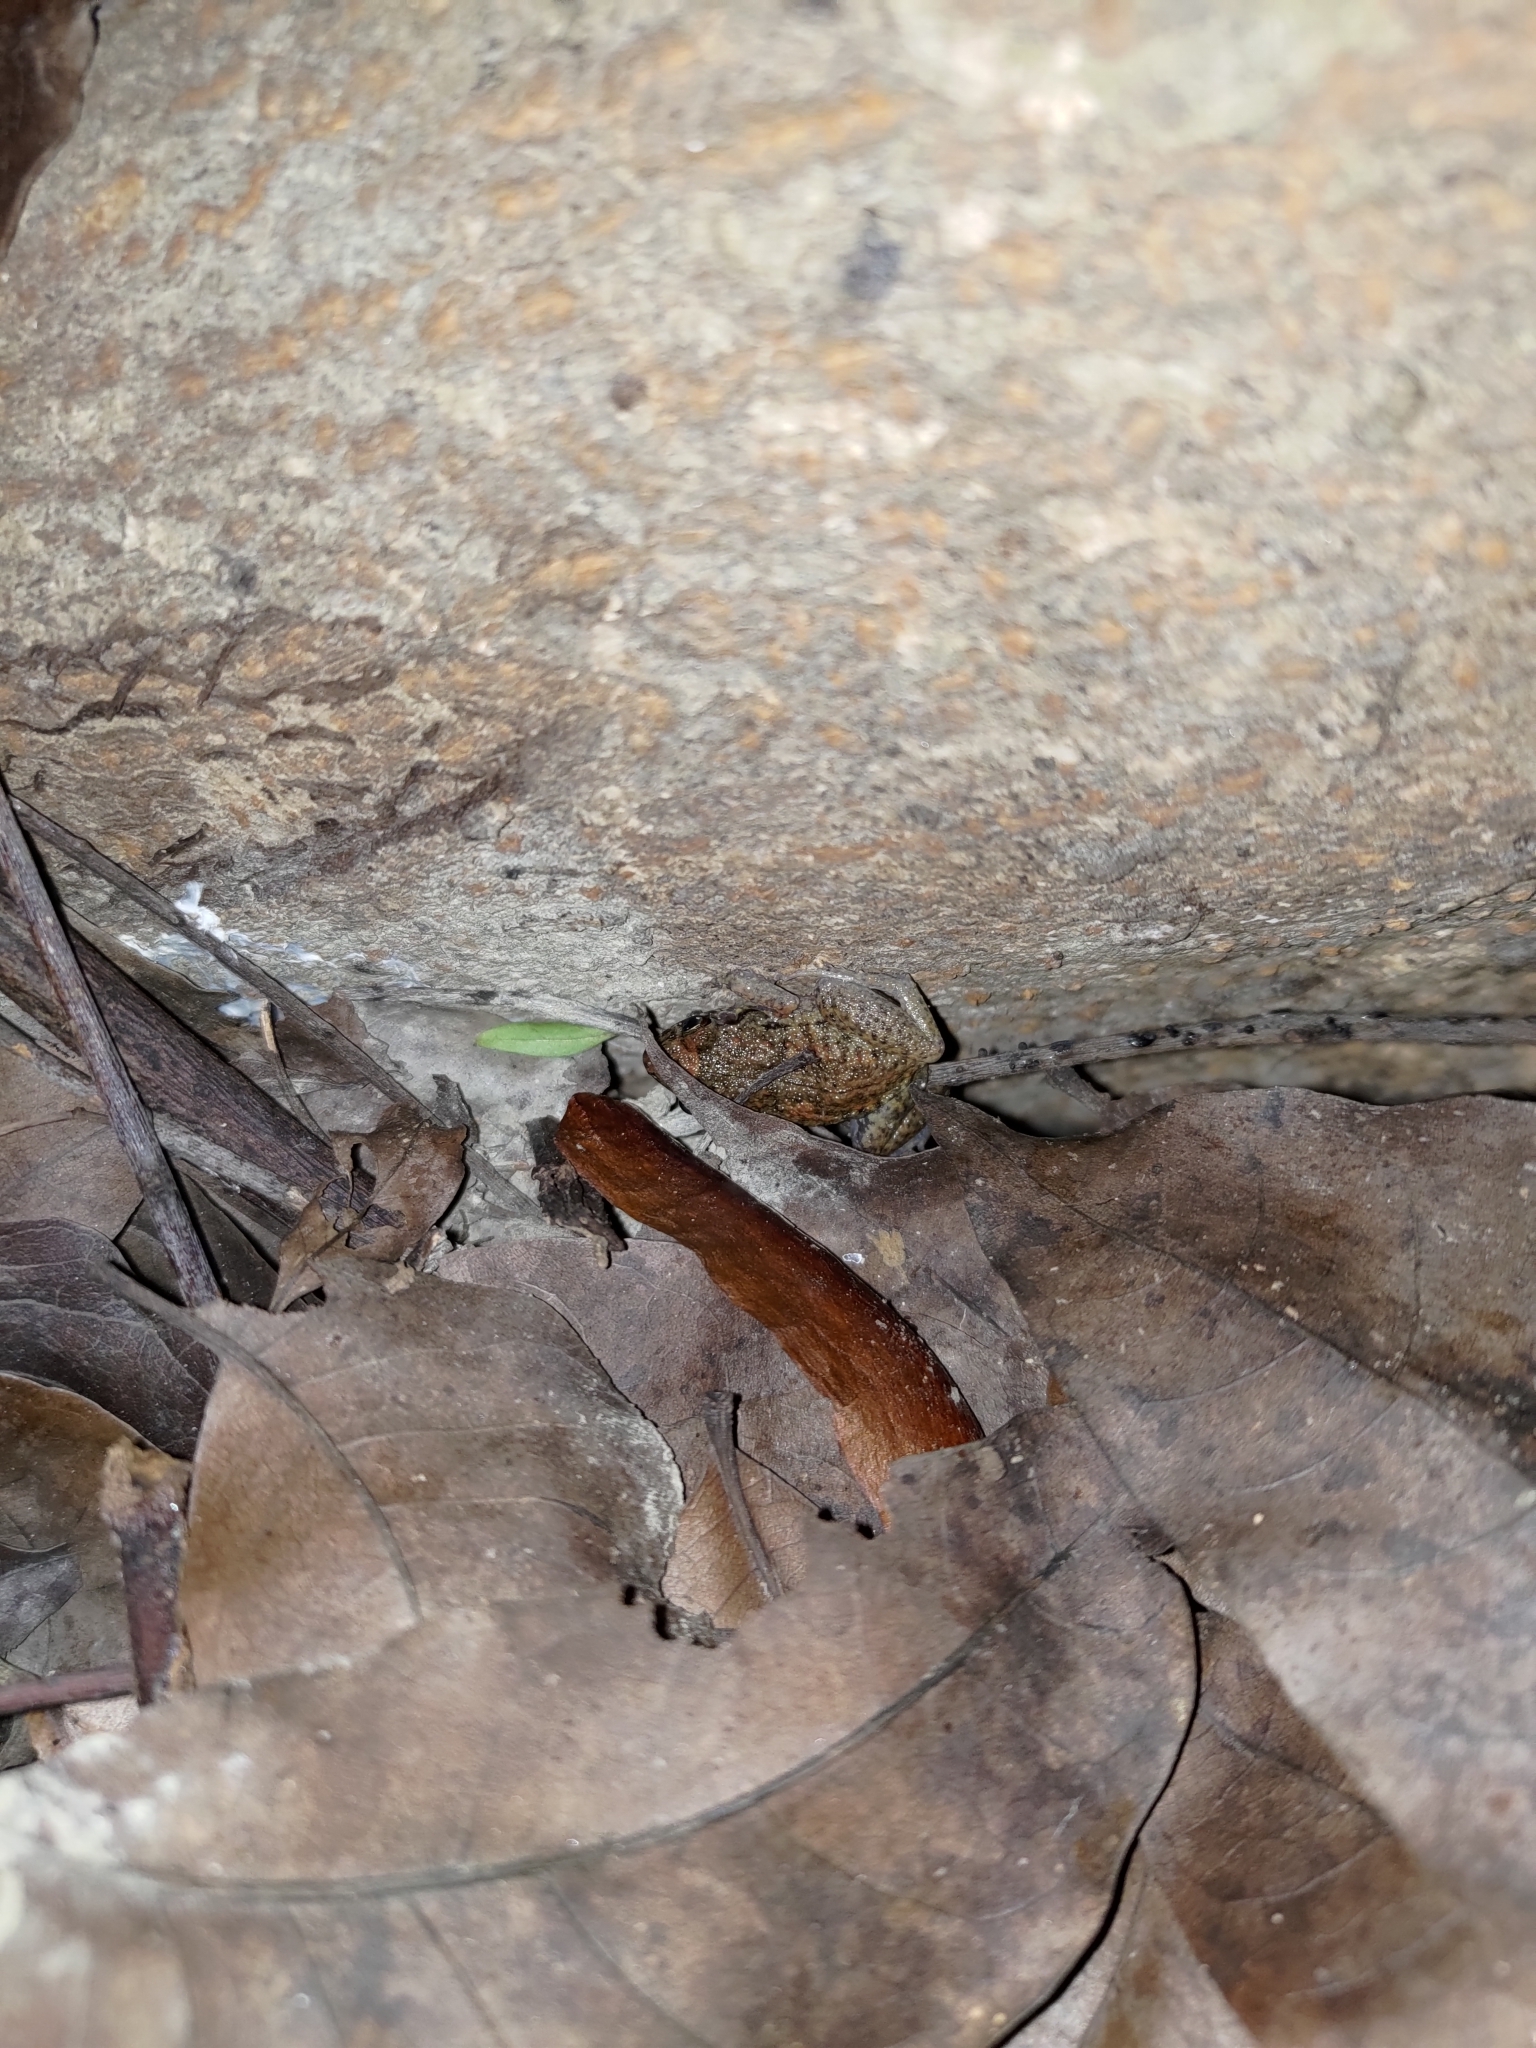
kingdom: Animalia
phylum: Chordata
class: Amphibia
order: Anura
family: Eleutherodactylidae
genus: Eleutherodactylus
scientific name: Eleutherodactylus planirostris
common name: Greenhouse frog
